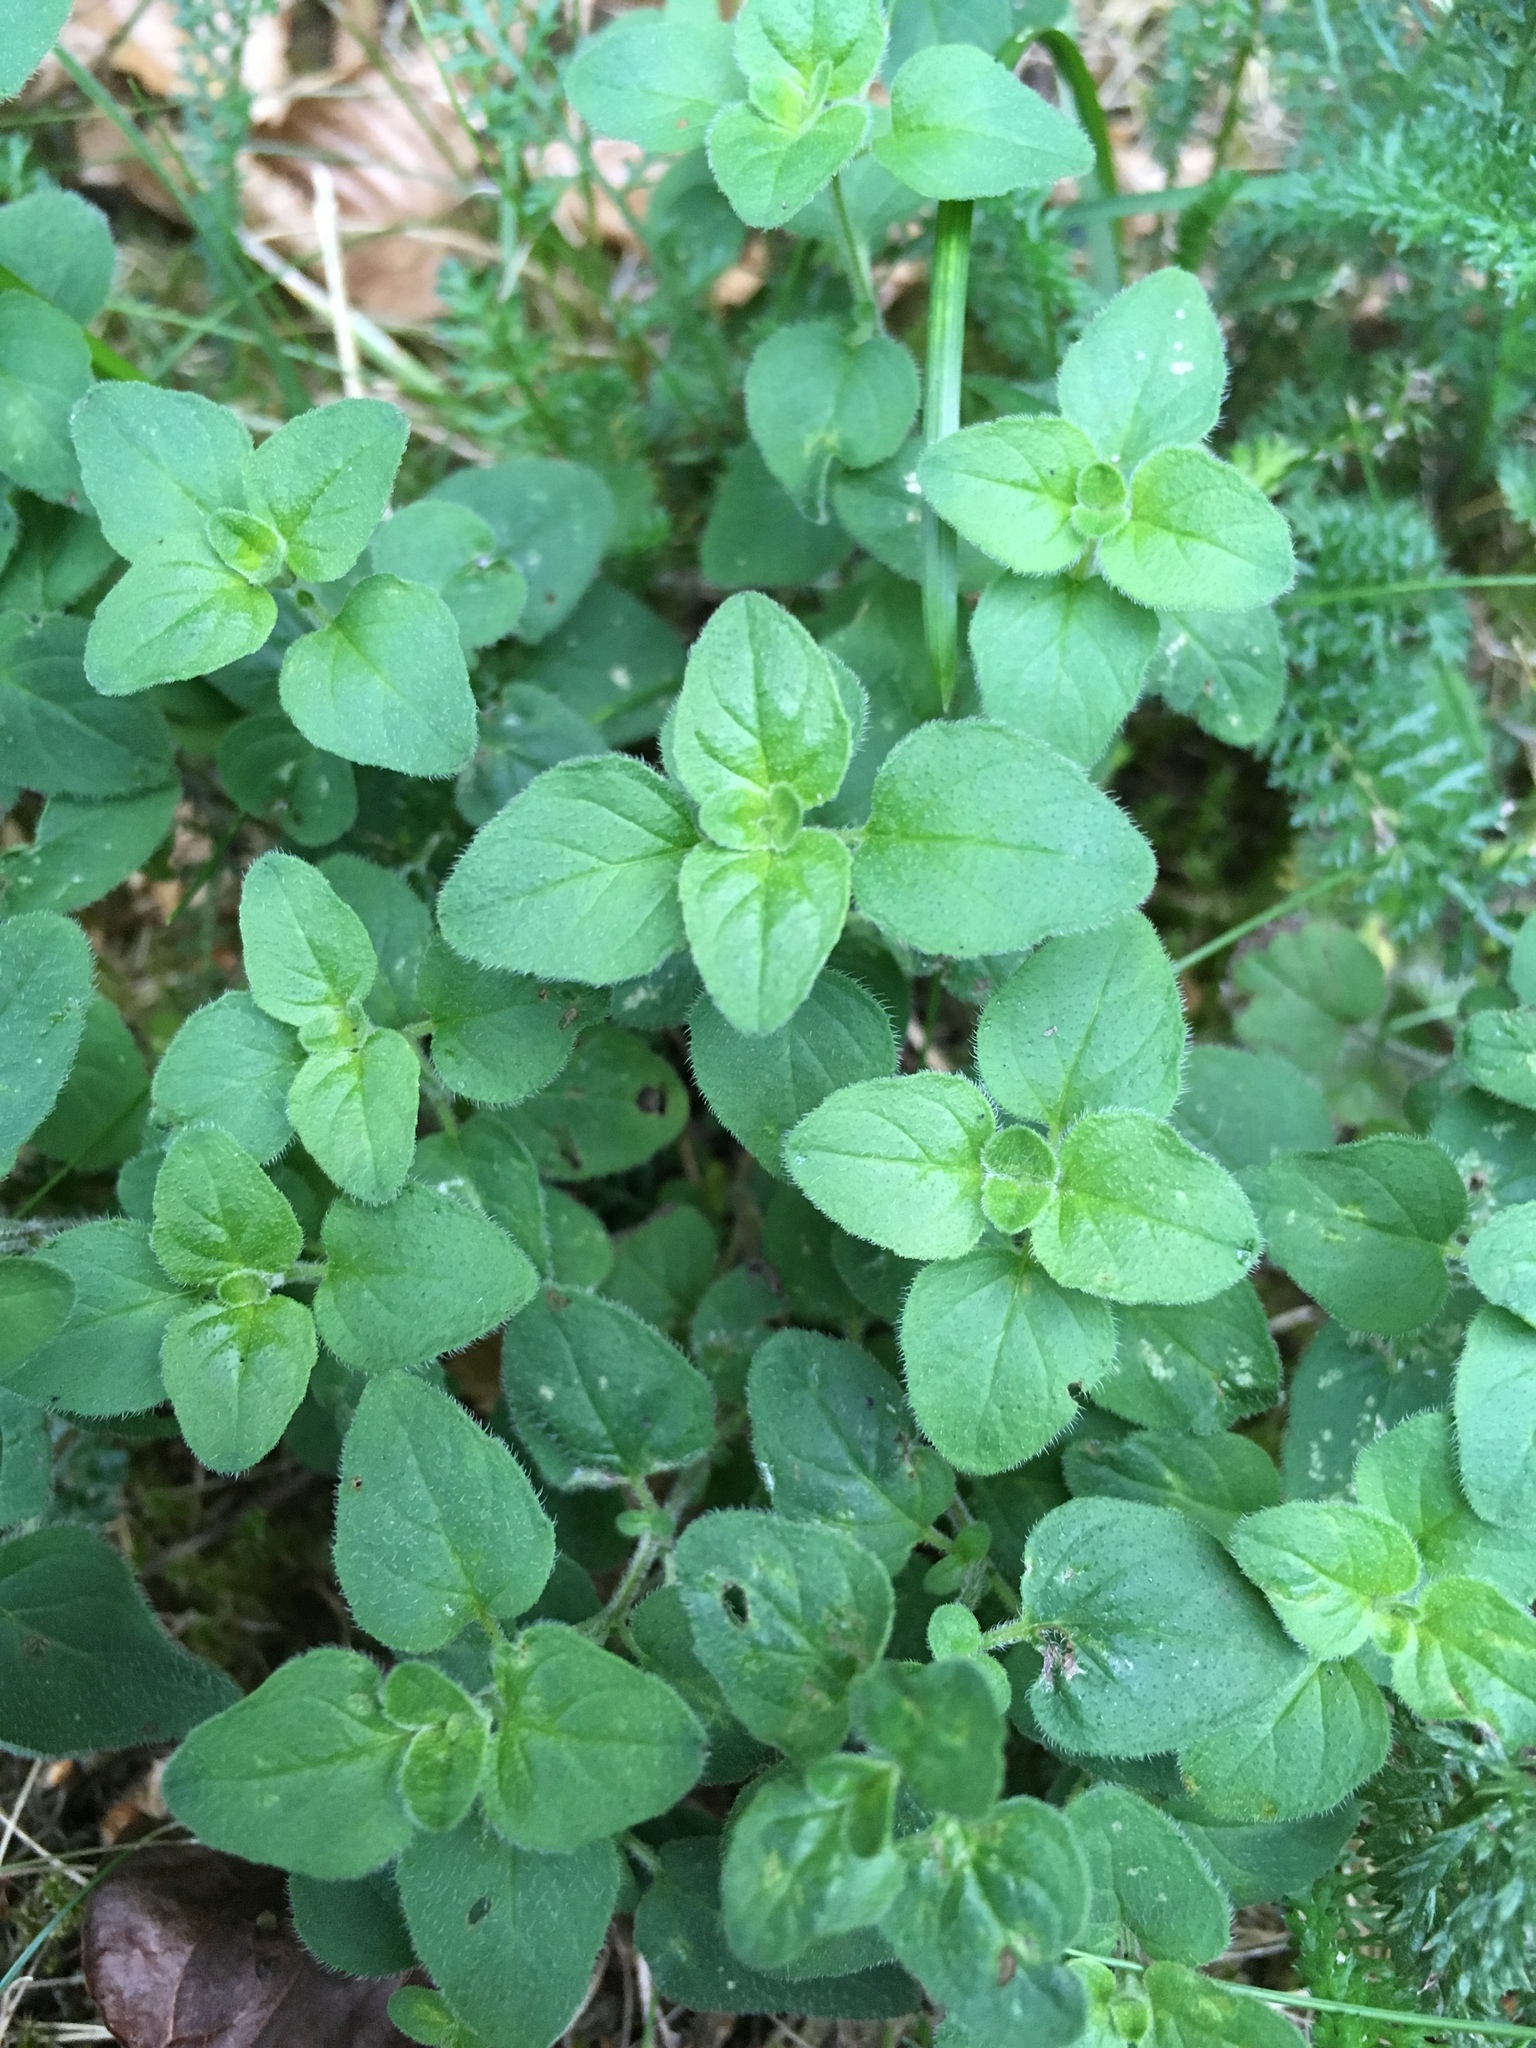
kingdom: Plantae
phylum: Tracheophyta
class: Magnoliopsida
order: Lamiales
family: Lamiaceae
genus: Origanum
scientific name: Origanum vulgare
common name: Wild marjoram
